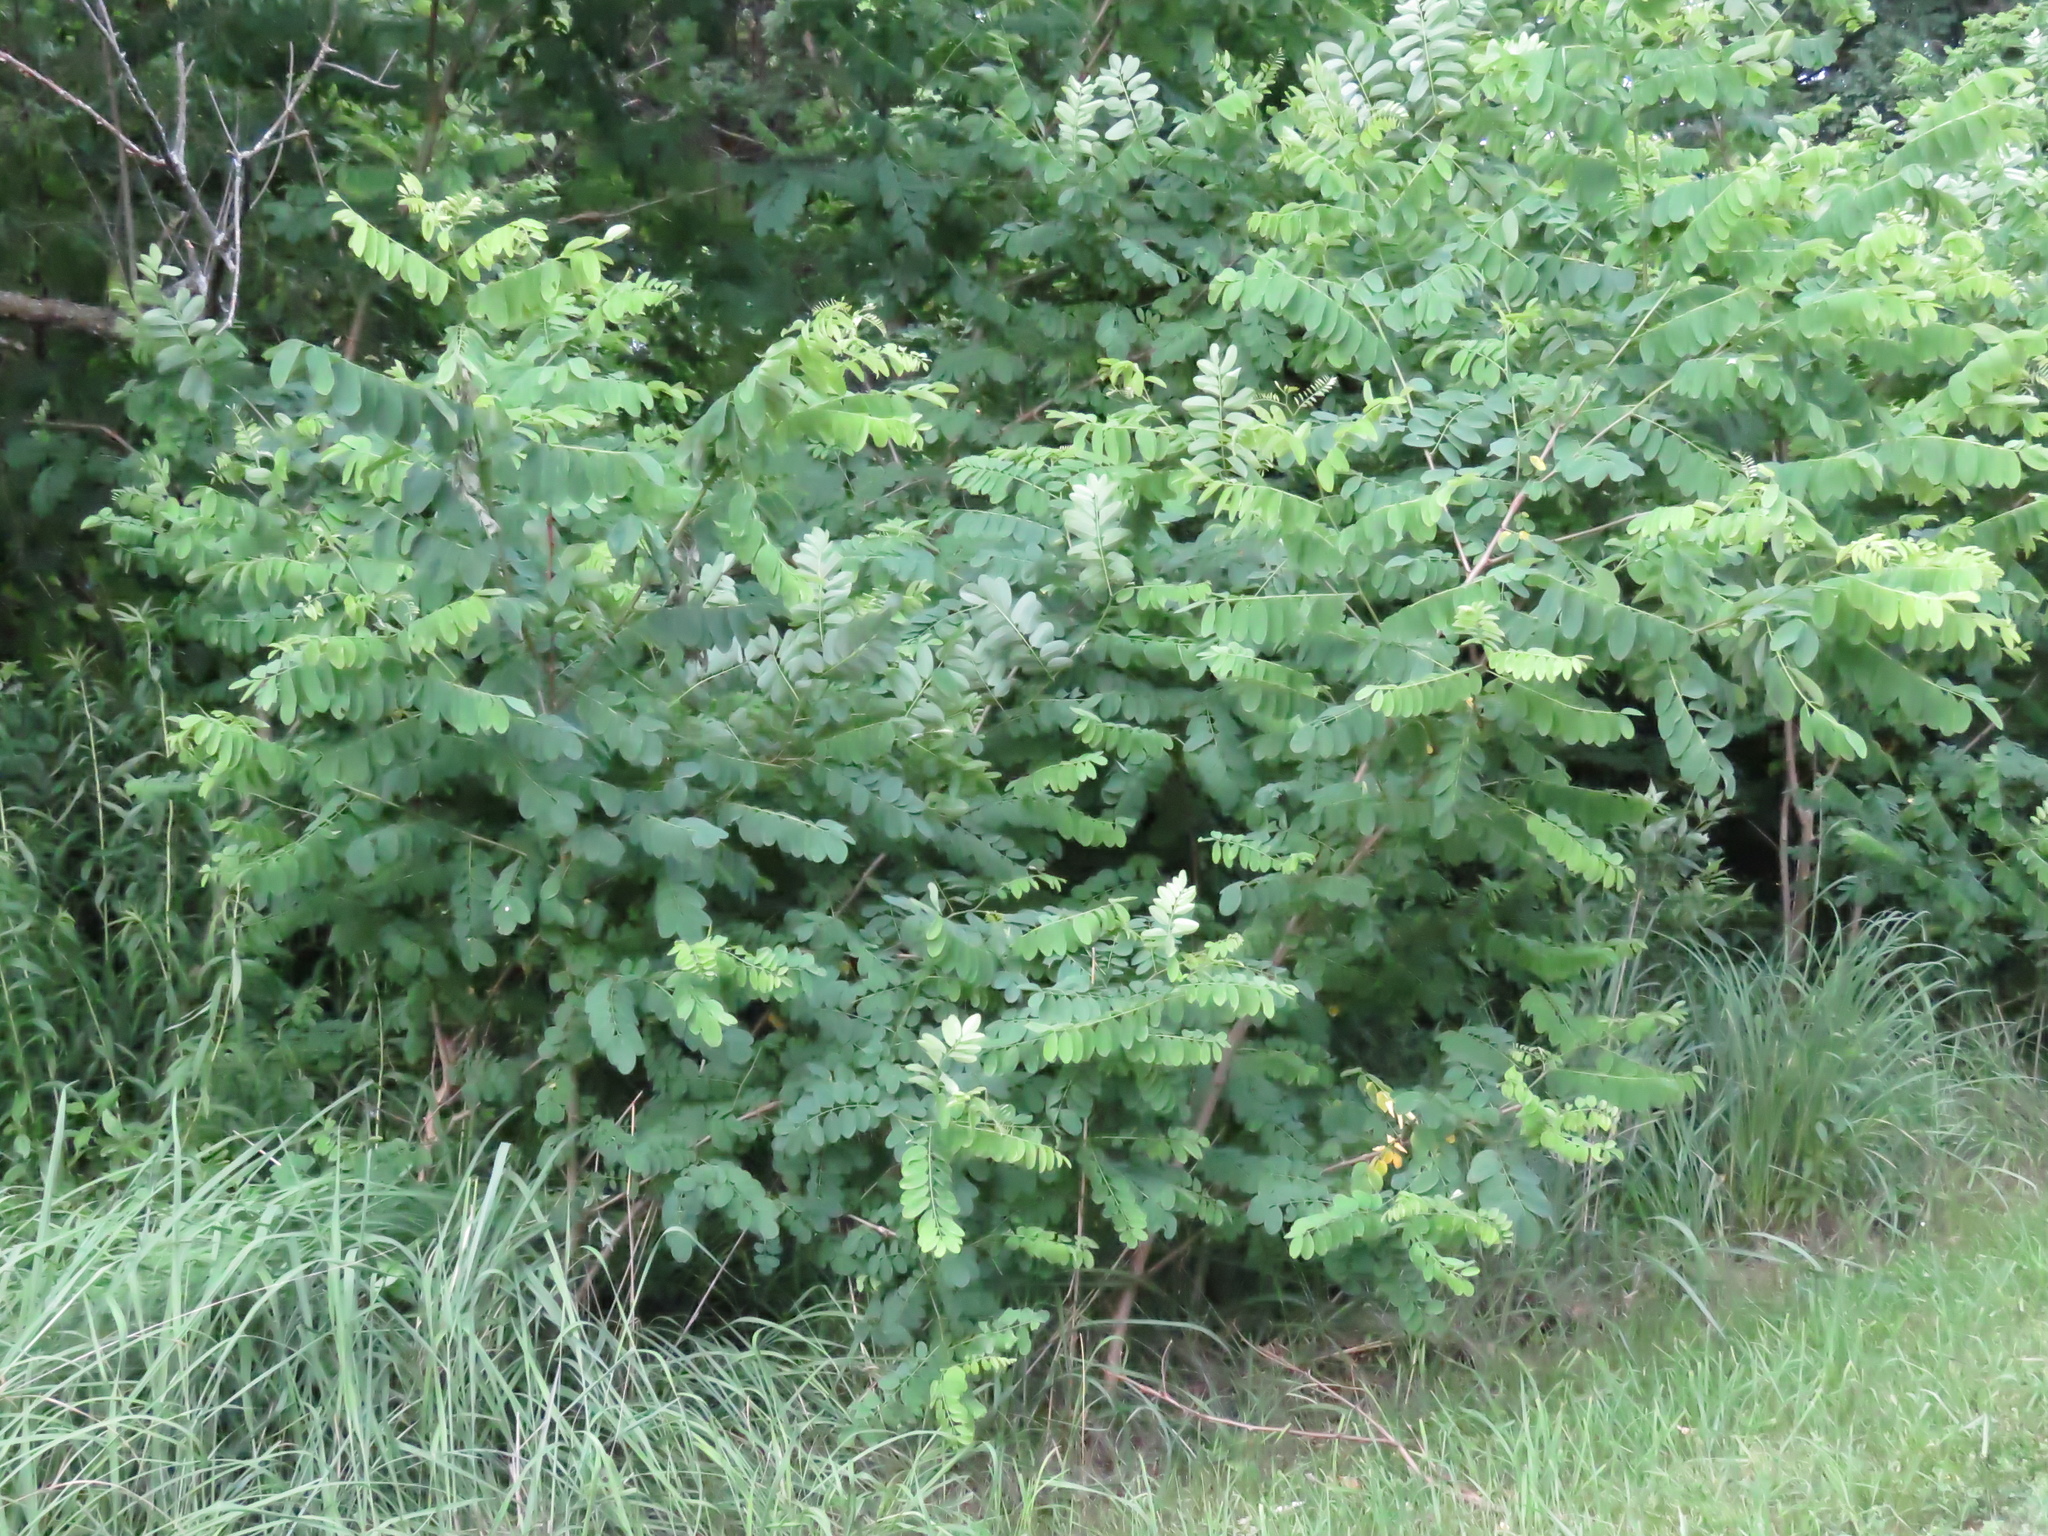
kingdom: Plantae
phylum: Tracheophyta
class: Magnoliopsida
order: Fabales
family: Fabaceae
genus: Robinia
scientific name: Robinia pseudoacacia
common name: Black locust
